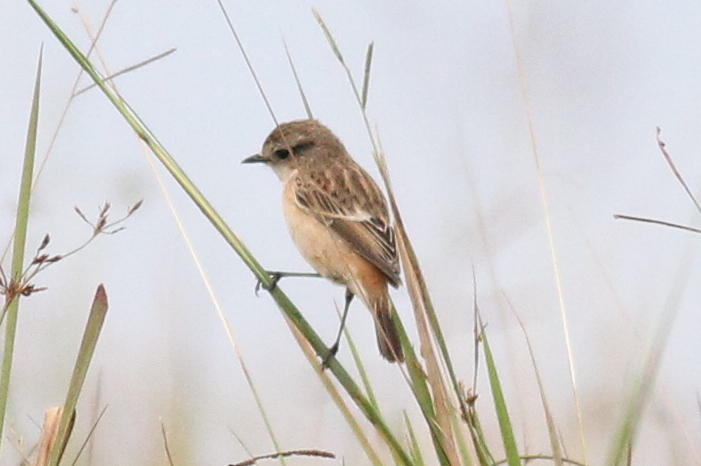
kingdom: Animalia
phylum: Chordata
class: Aves
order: Passeriformes
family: Muscicapidae
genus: Saxicola
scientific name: Saxicola stejnegeri
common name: Stejneger's stonechat
